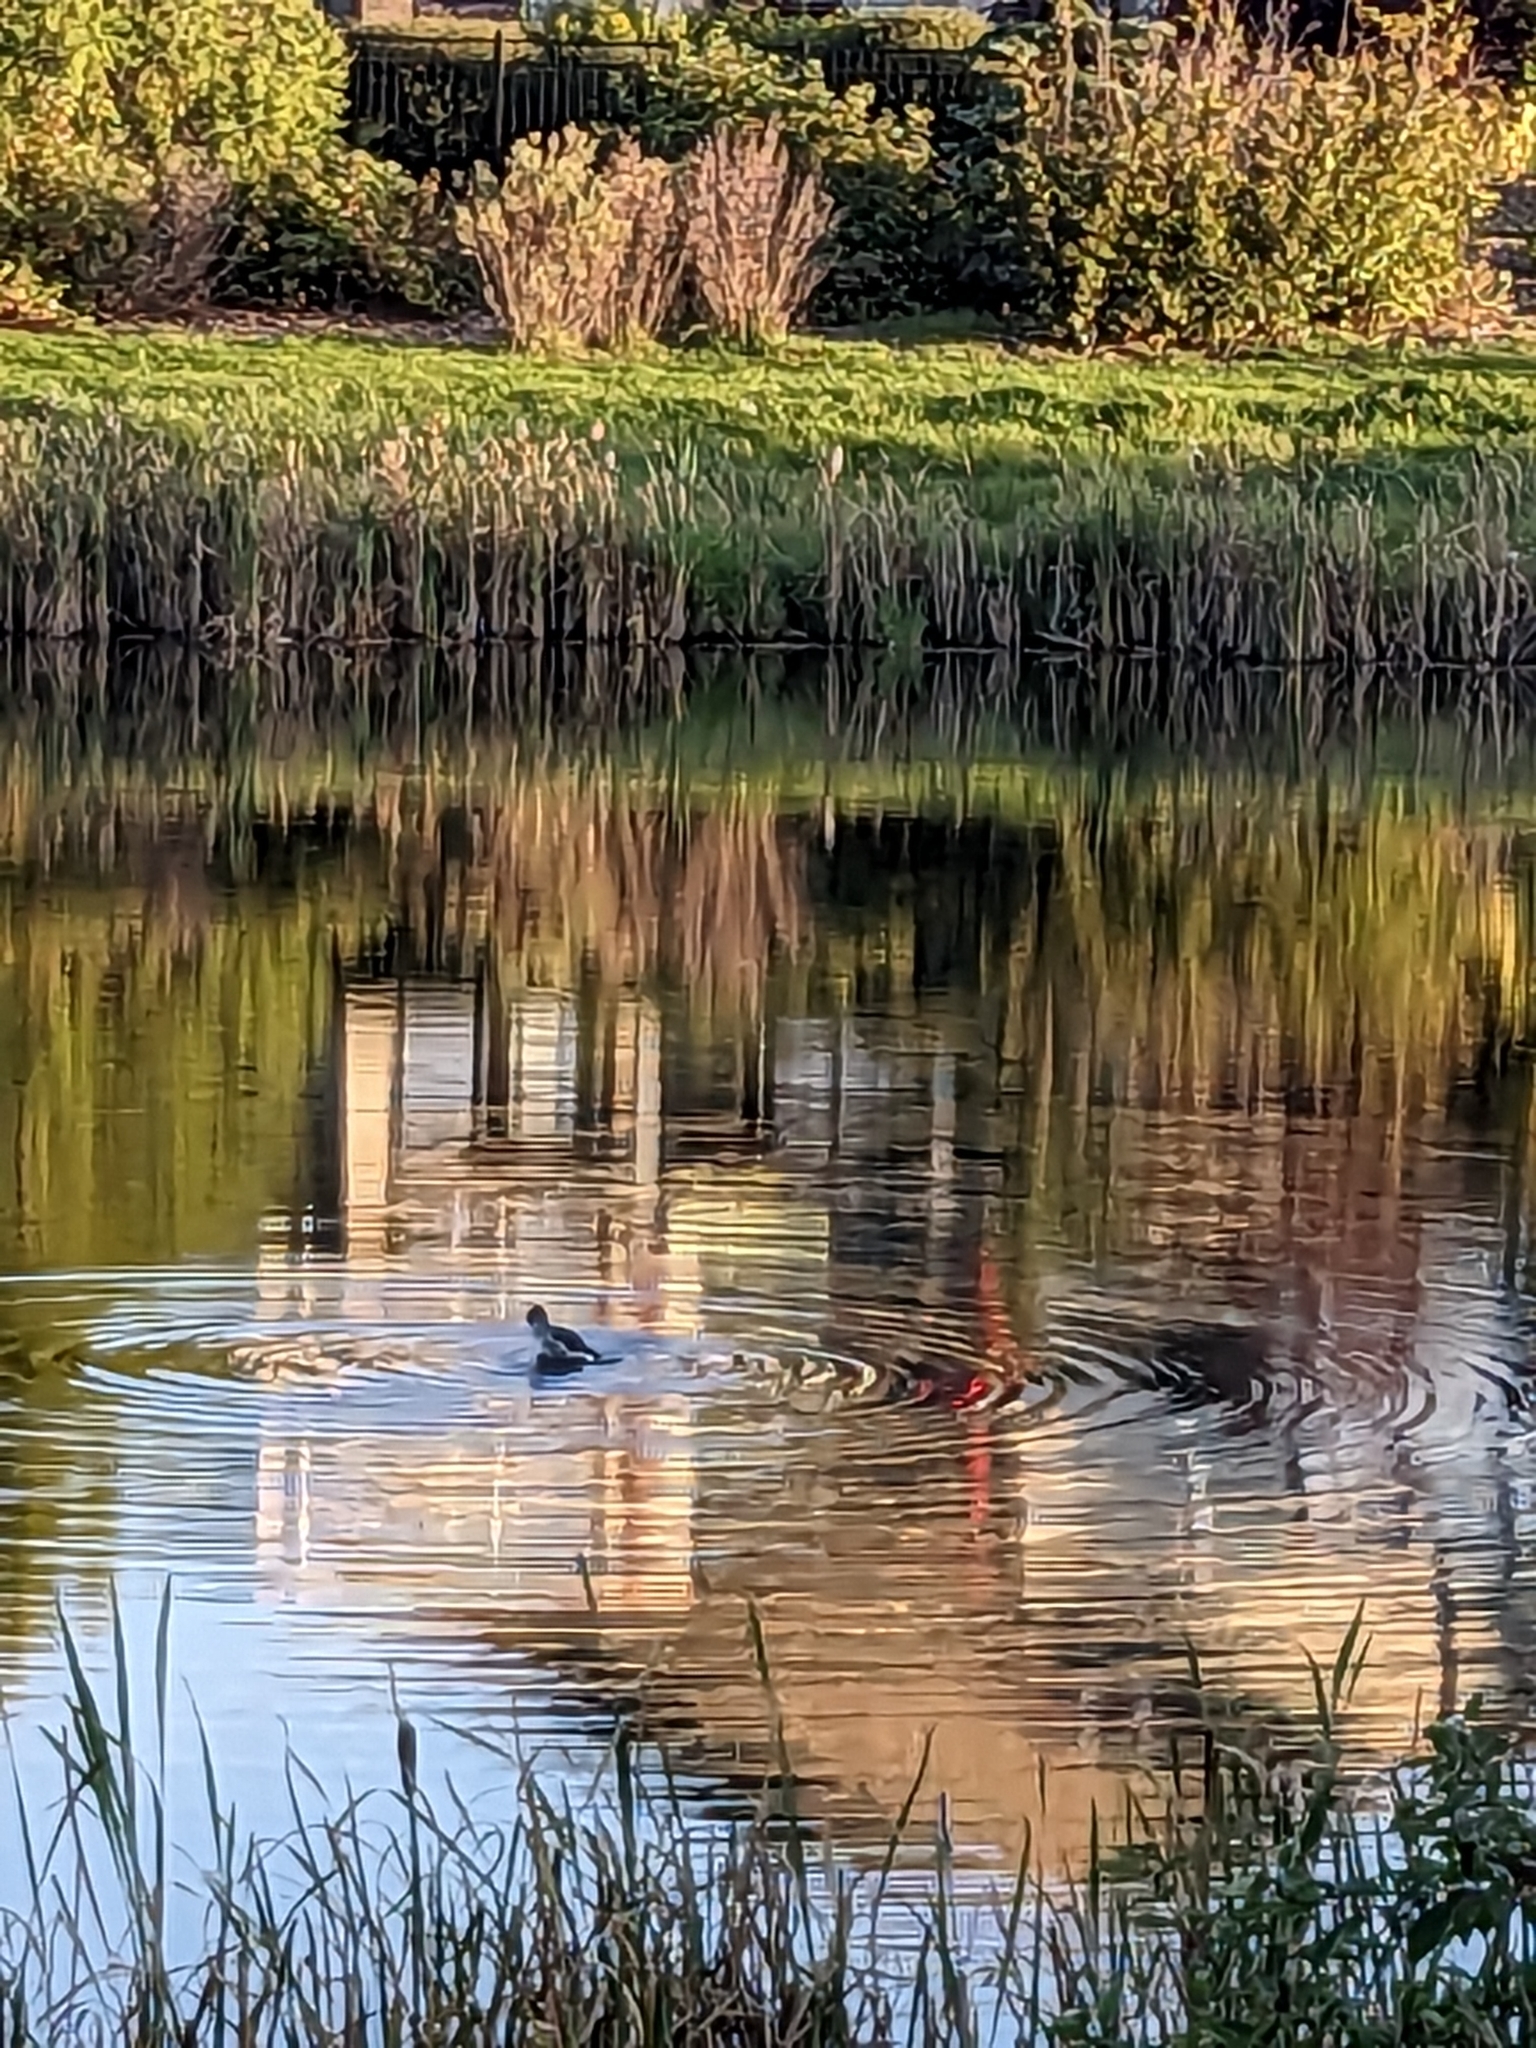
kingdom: Animalia
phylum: Chordata
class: Aves
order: Anseriformes
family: Anatidae
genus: Bucephala
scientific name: Bucephala clangula
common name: Common goldeneye
